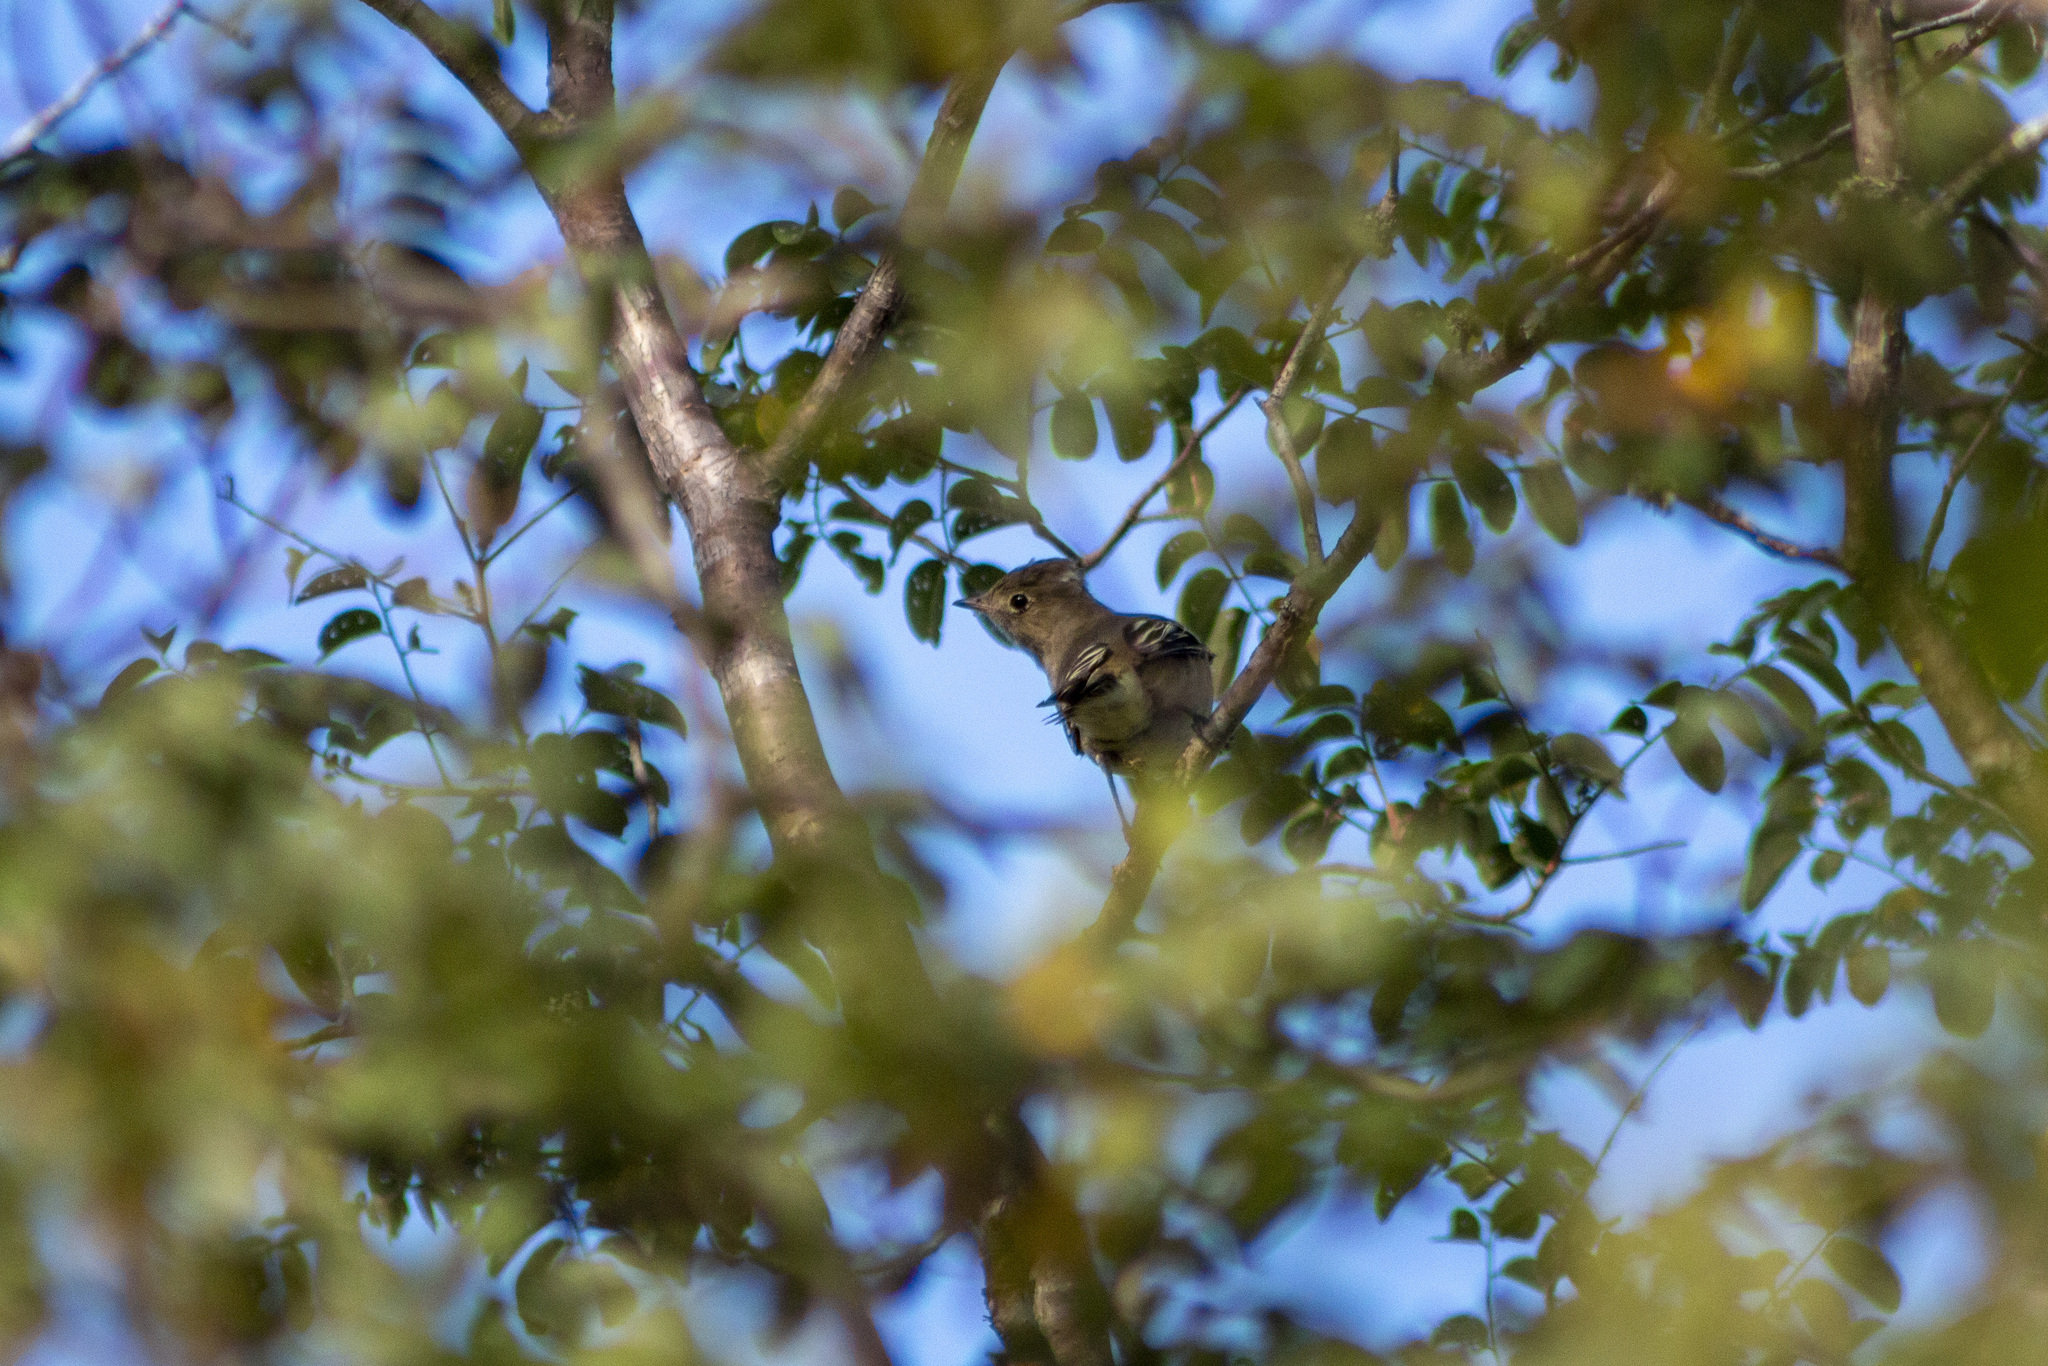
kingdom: Animalia
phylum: Chordata
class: Aves
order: Passeriformes
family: Tyrannidae
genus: Elaenia
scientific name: Elaenia albiceps
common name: White-crested elaenia
